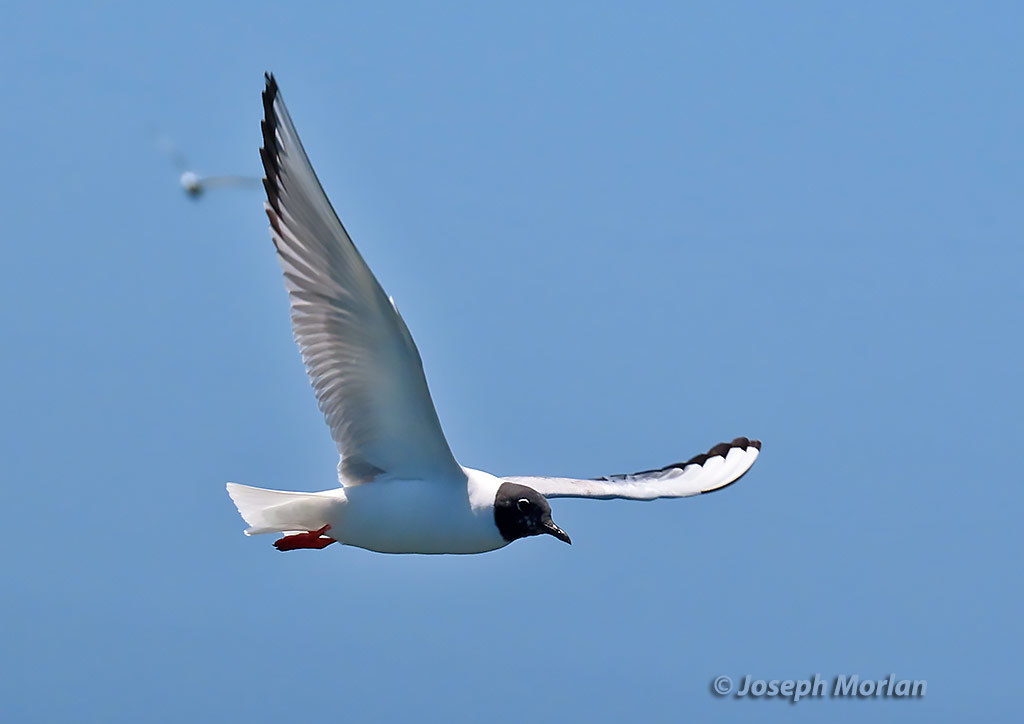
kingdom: Animalia
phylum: Chordata
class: Aves
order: Charadriiformes
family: Laridae
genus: Chroicocephalus
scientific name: Chroicocephalus philadelphia
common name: Bonaparte's gull
